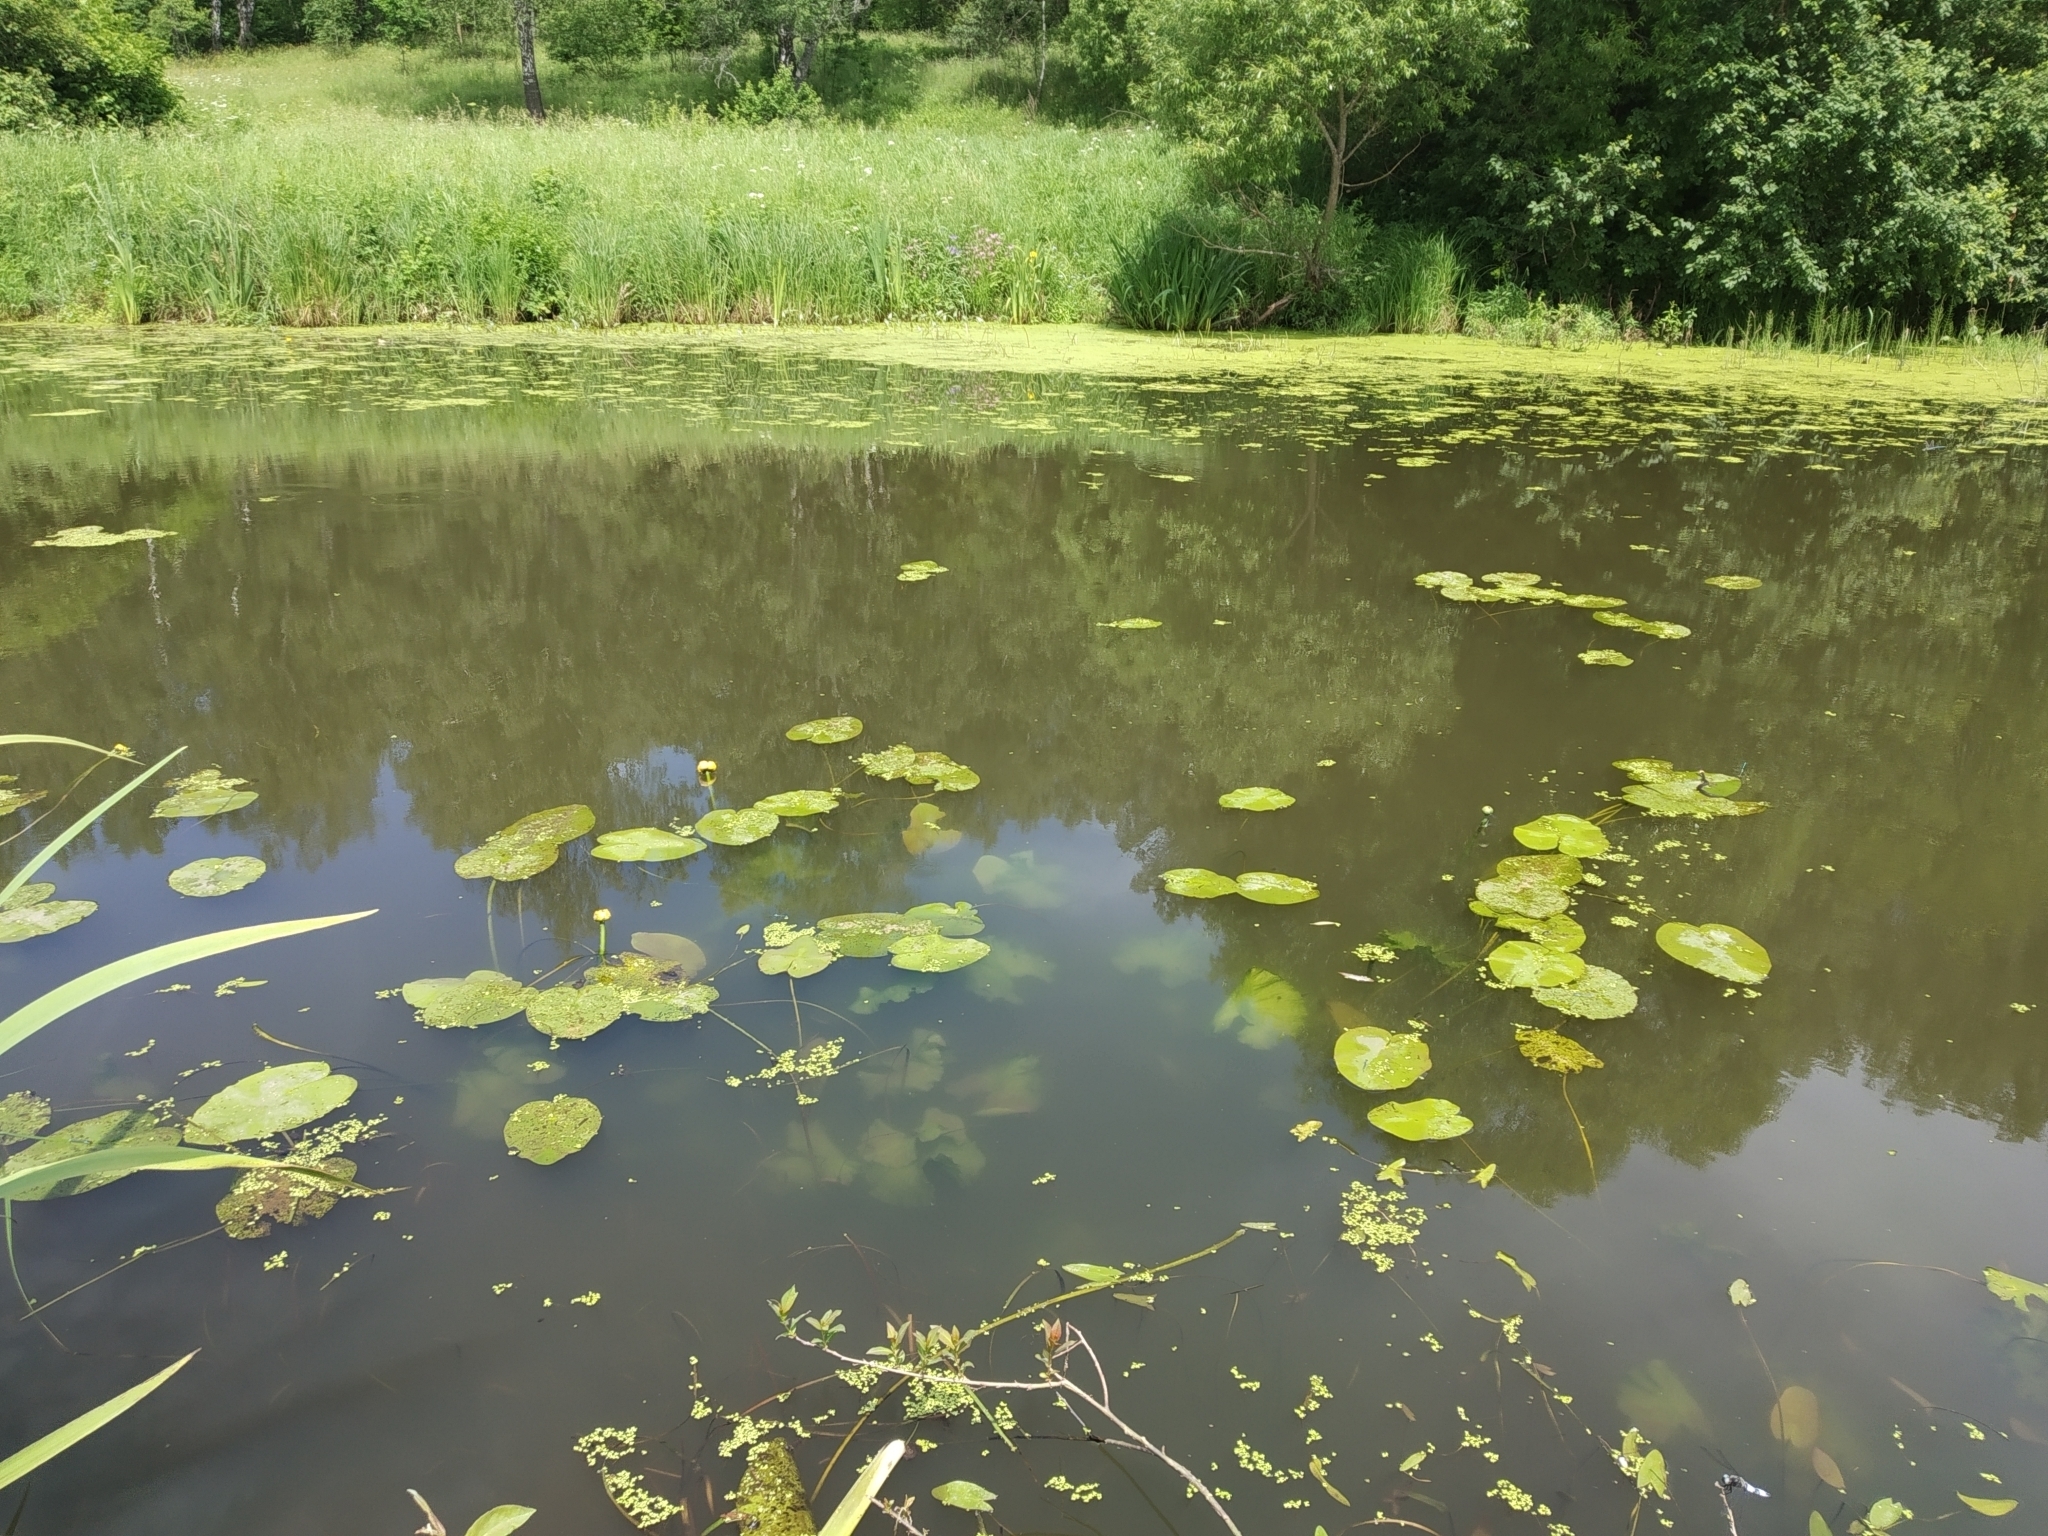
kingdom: Plantae
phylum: Tracheophyta
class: Magnoliopsida
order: Nymphaeales
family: Nymphaeaceae
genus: Nuphar
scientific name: Nuphar lutea
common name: Yellow water-lily
